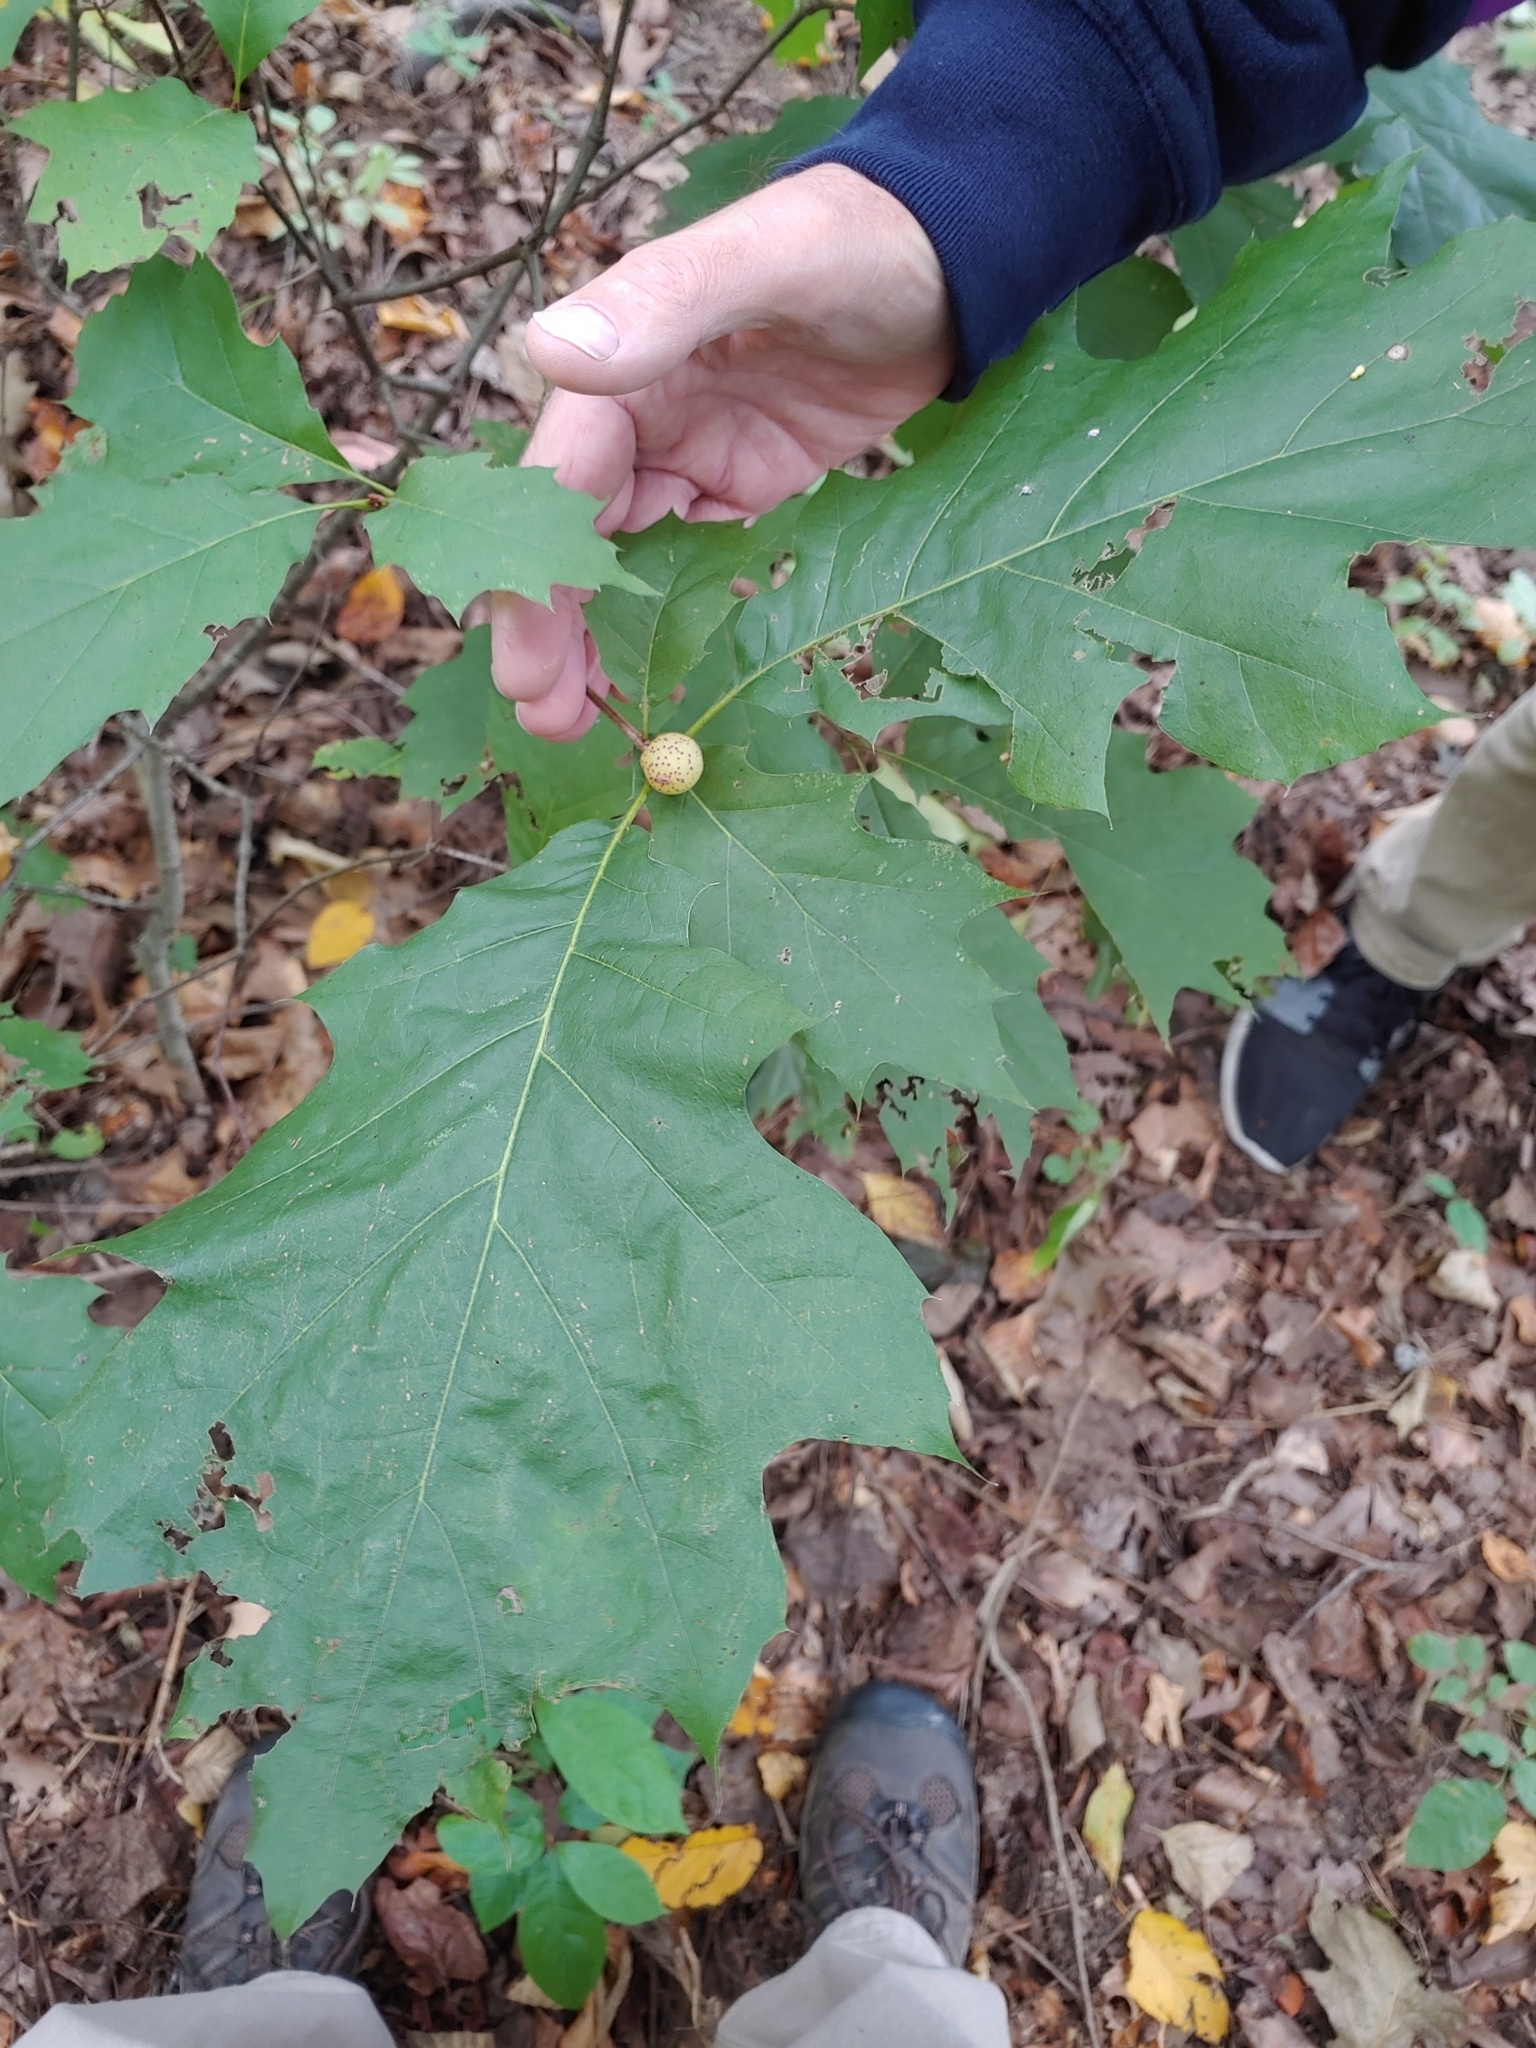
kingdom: Animalia
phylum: Arthropoda
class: Insecta
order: Hymenoptera
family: Cynipidae
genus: Amphibolips
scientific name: Amphibolips
